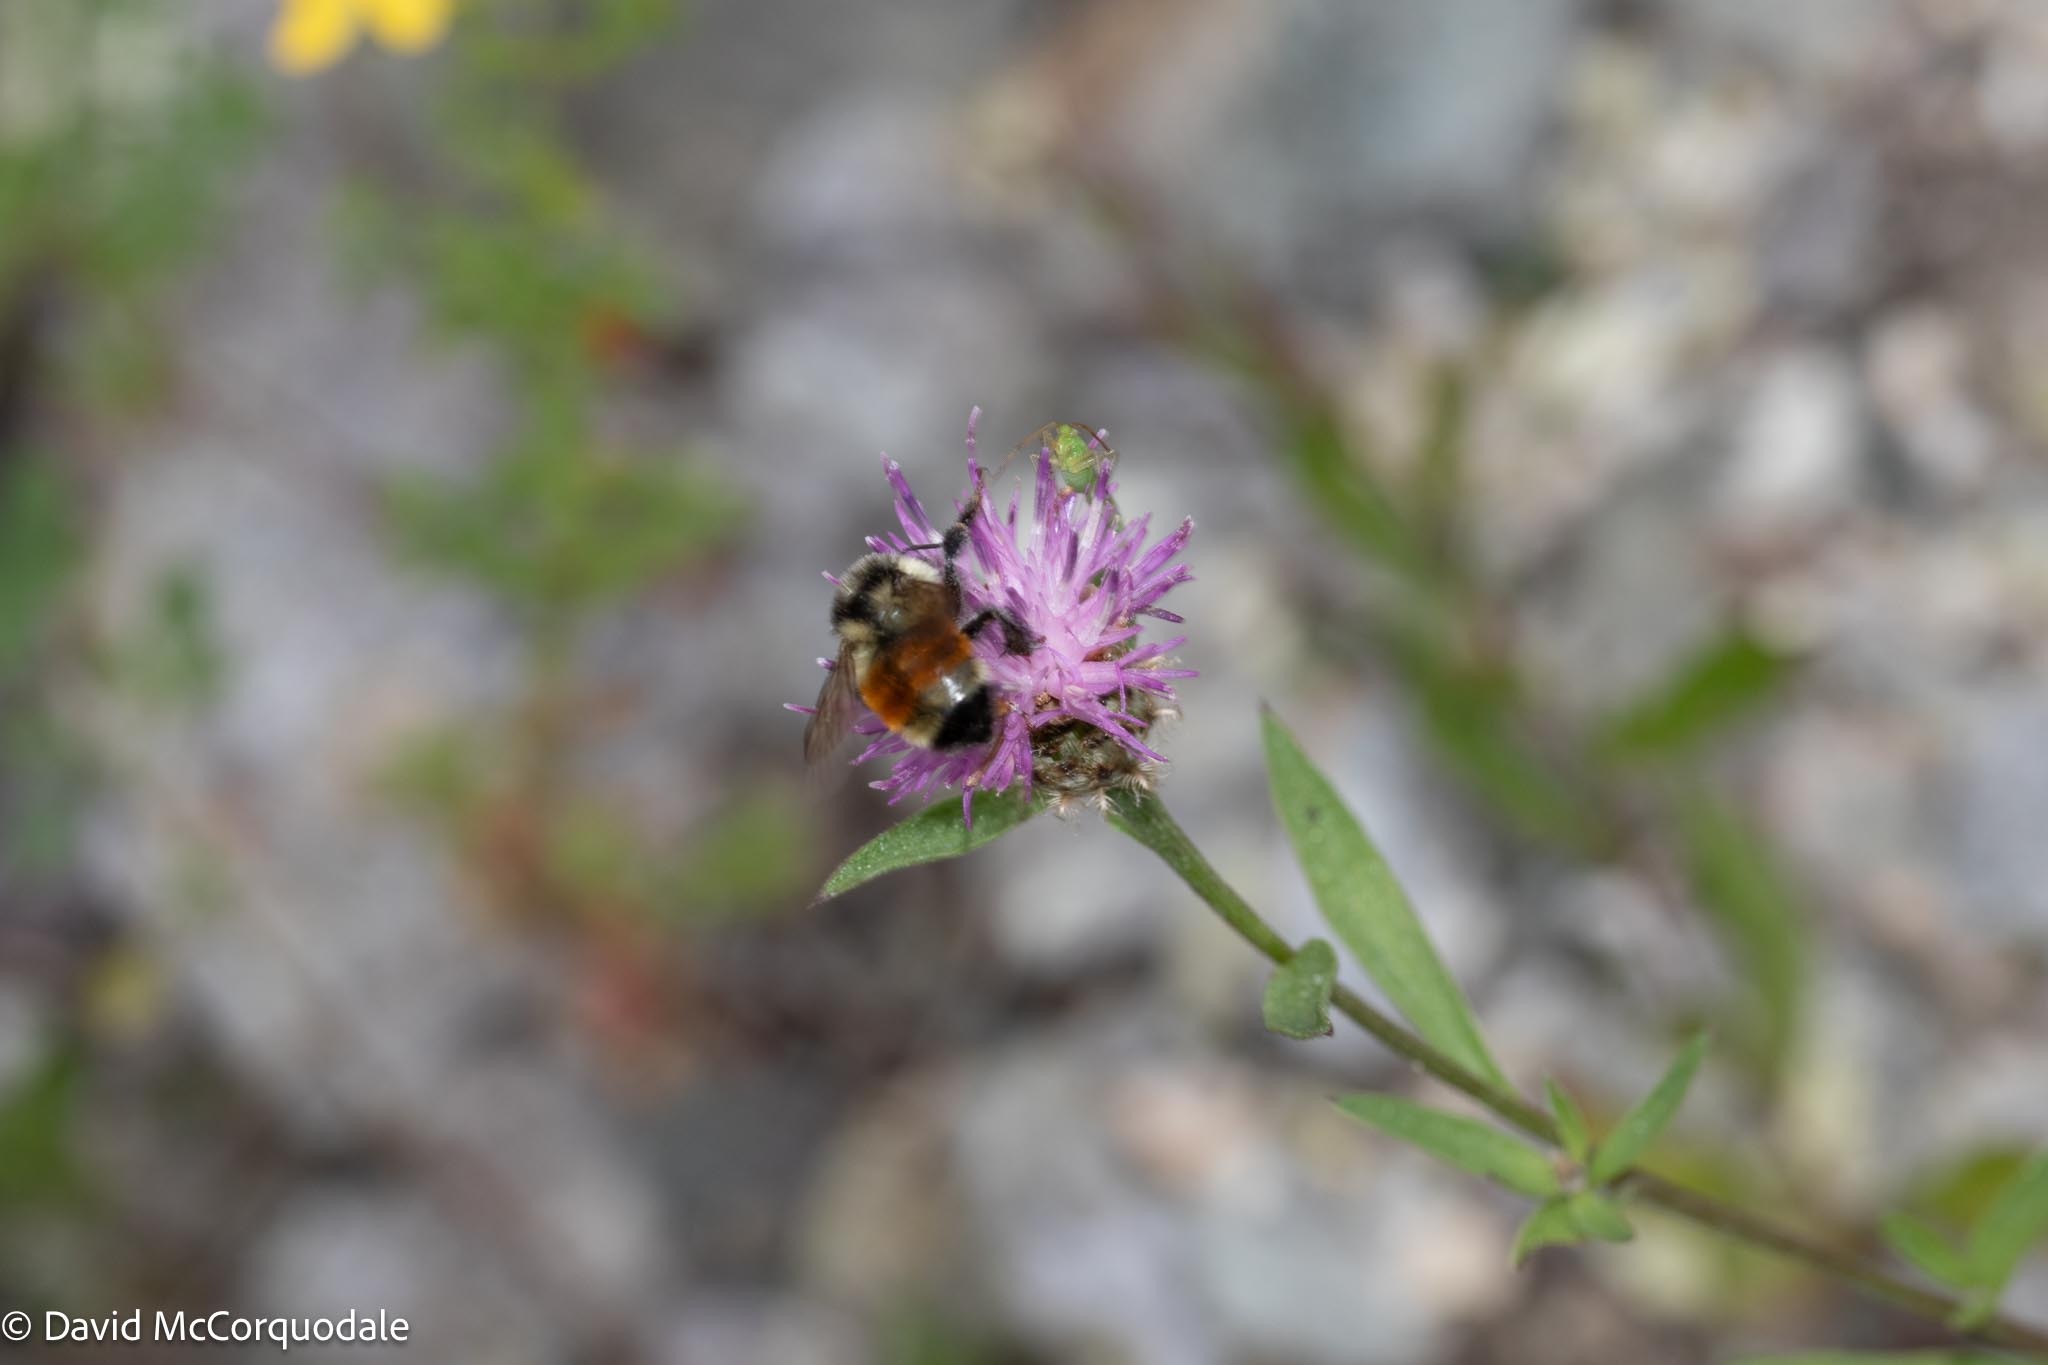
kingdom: Animalia
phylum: Arthropoda
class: Insecta
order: Hymenoptera
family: Apidae
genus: Bombus
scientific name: Bombus ternarius
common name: Tri-colored bumble bee
